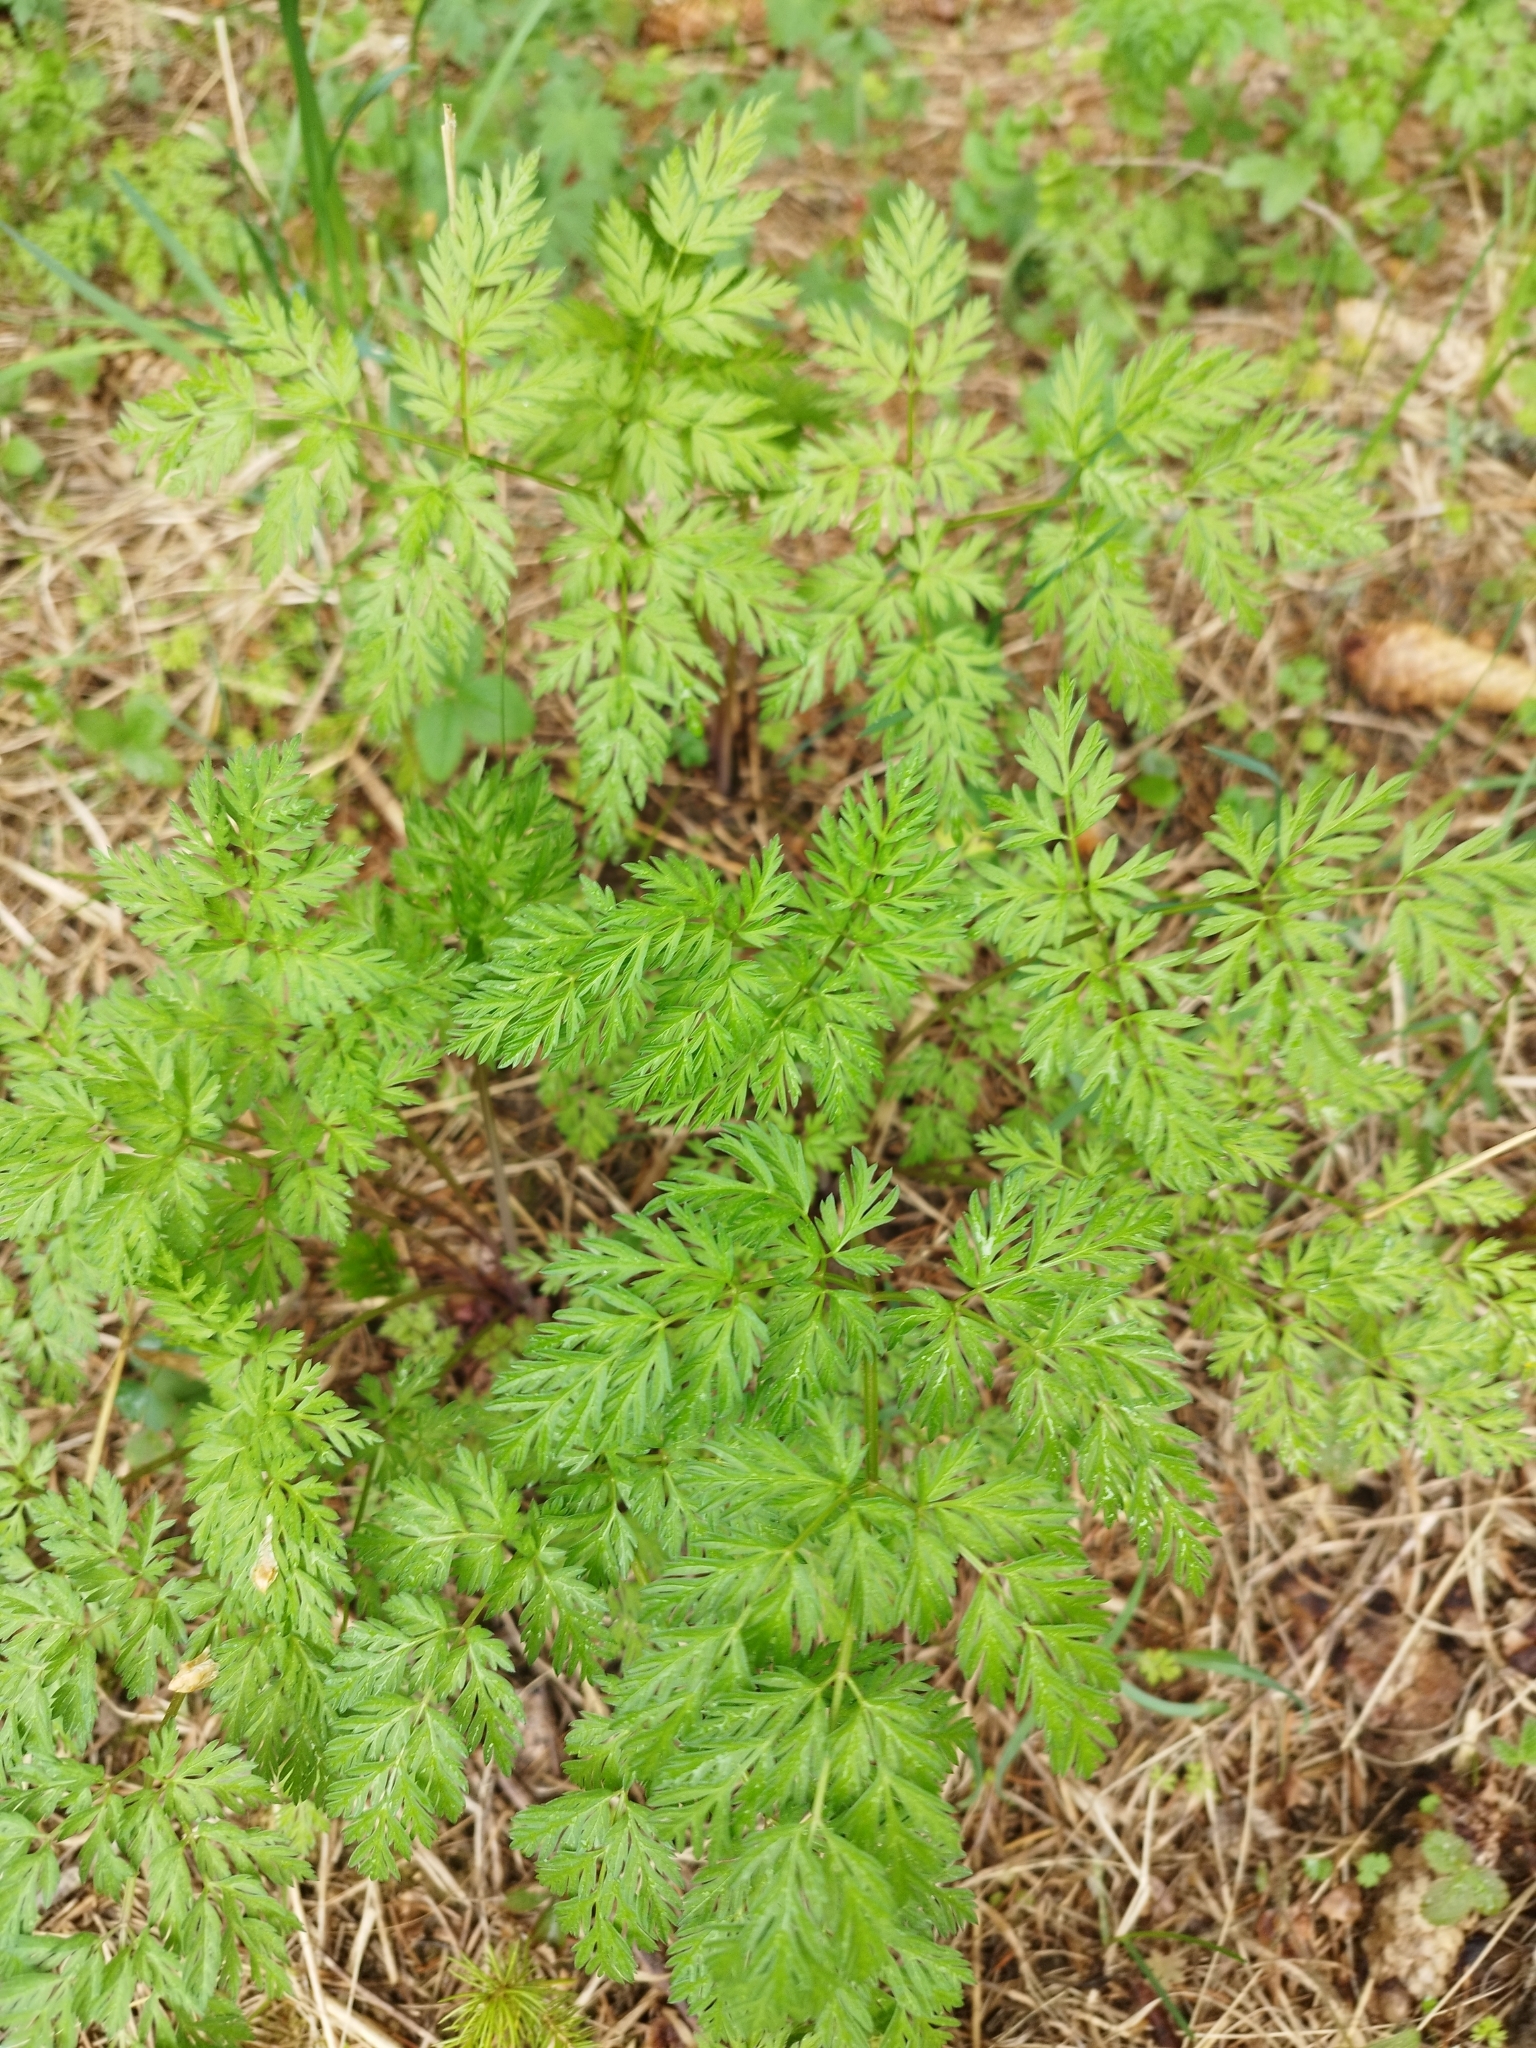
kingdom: Plantae
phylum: Tracheophyta
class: Magnoliopsida
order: Apiales
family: Apiaceae
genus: Anthriscus
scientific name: Anthriscus sylvestris
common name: Cow parsley
